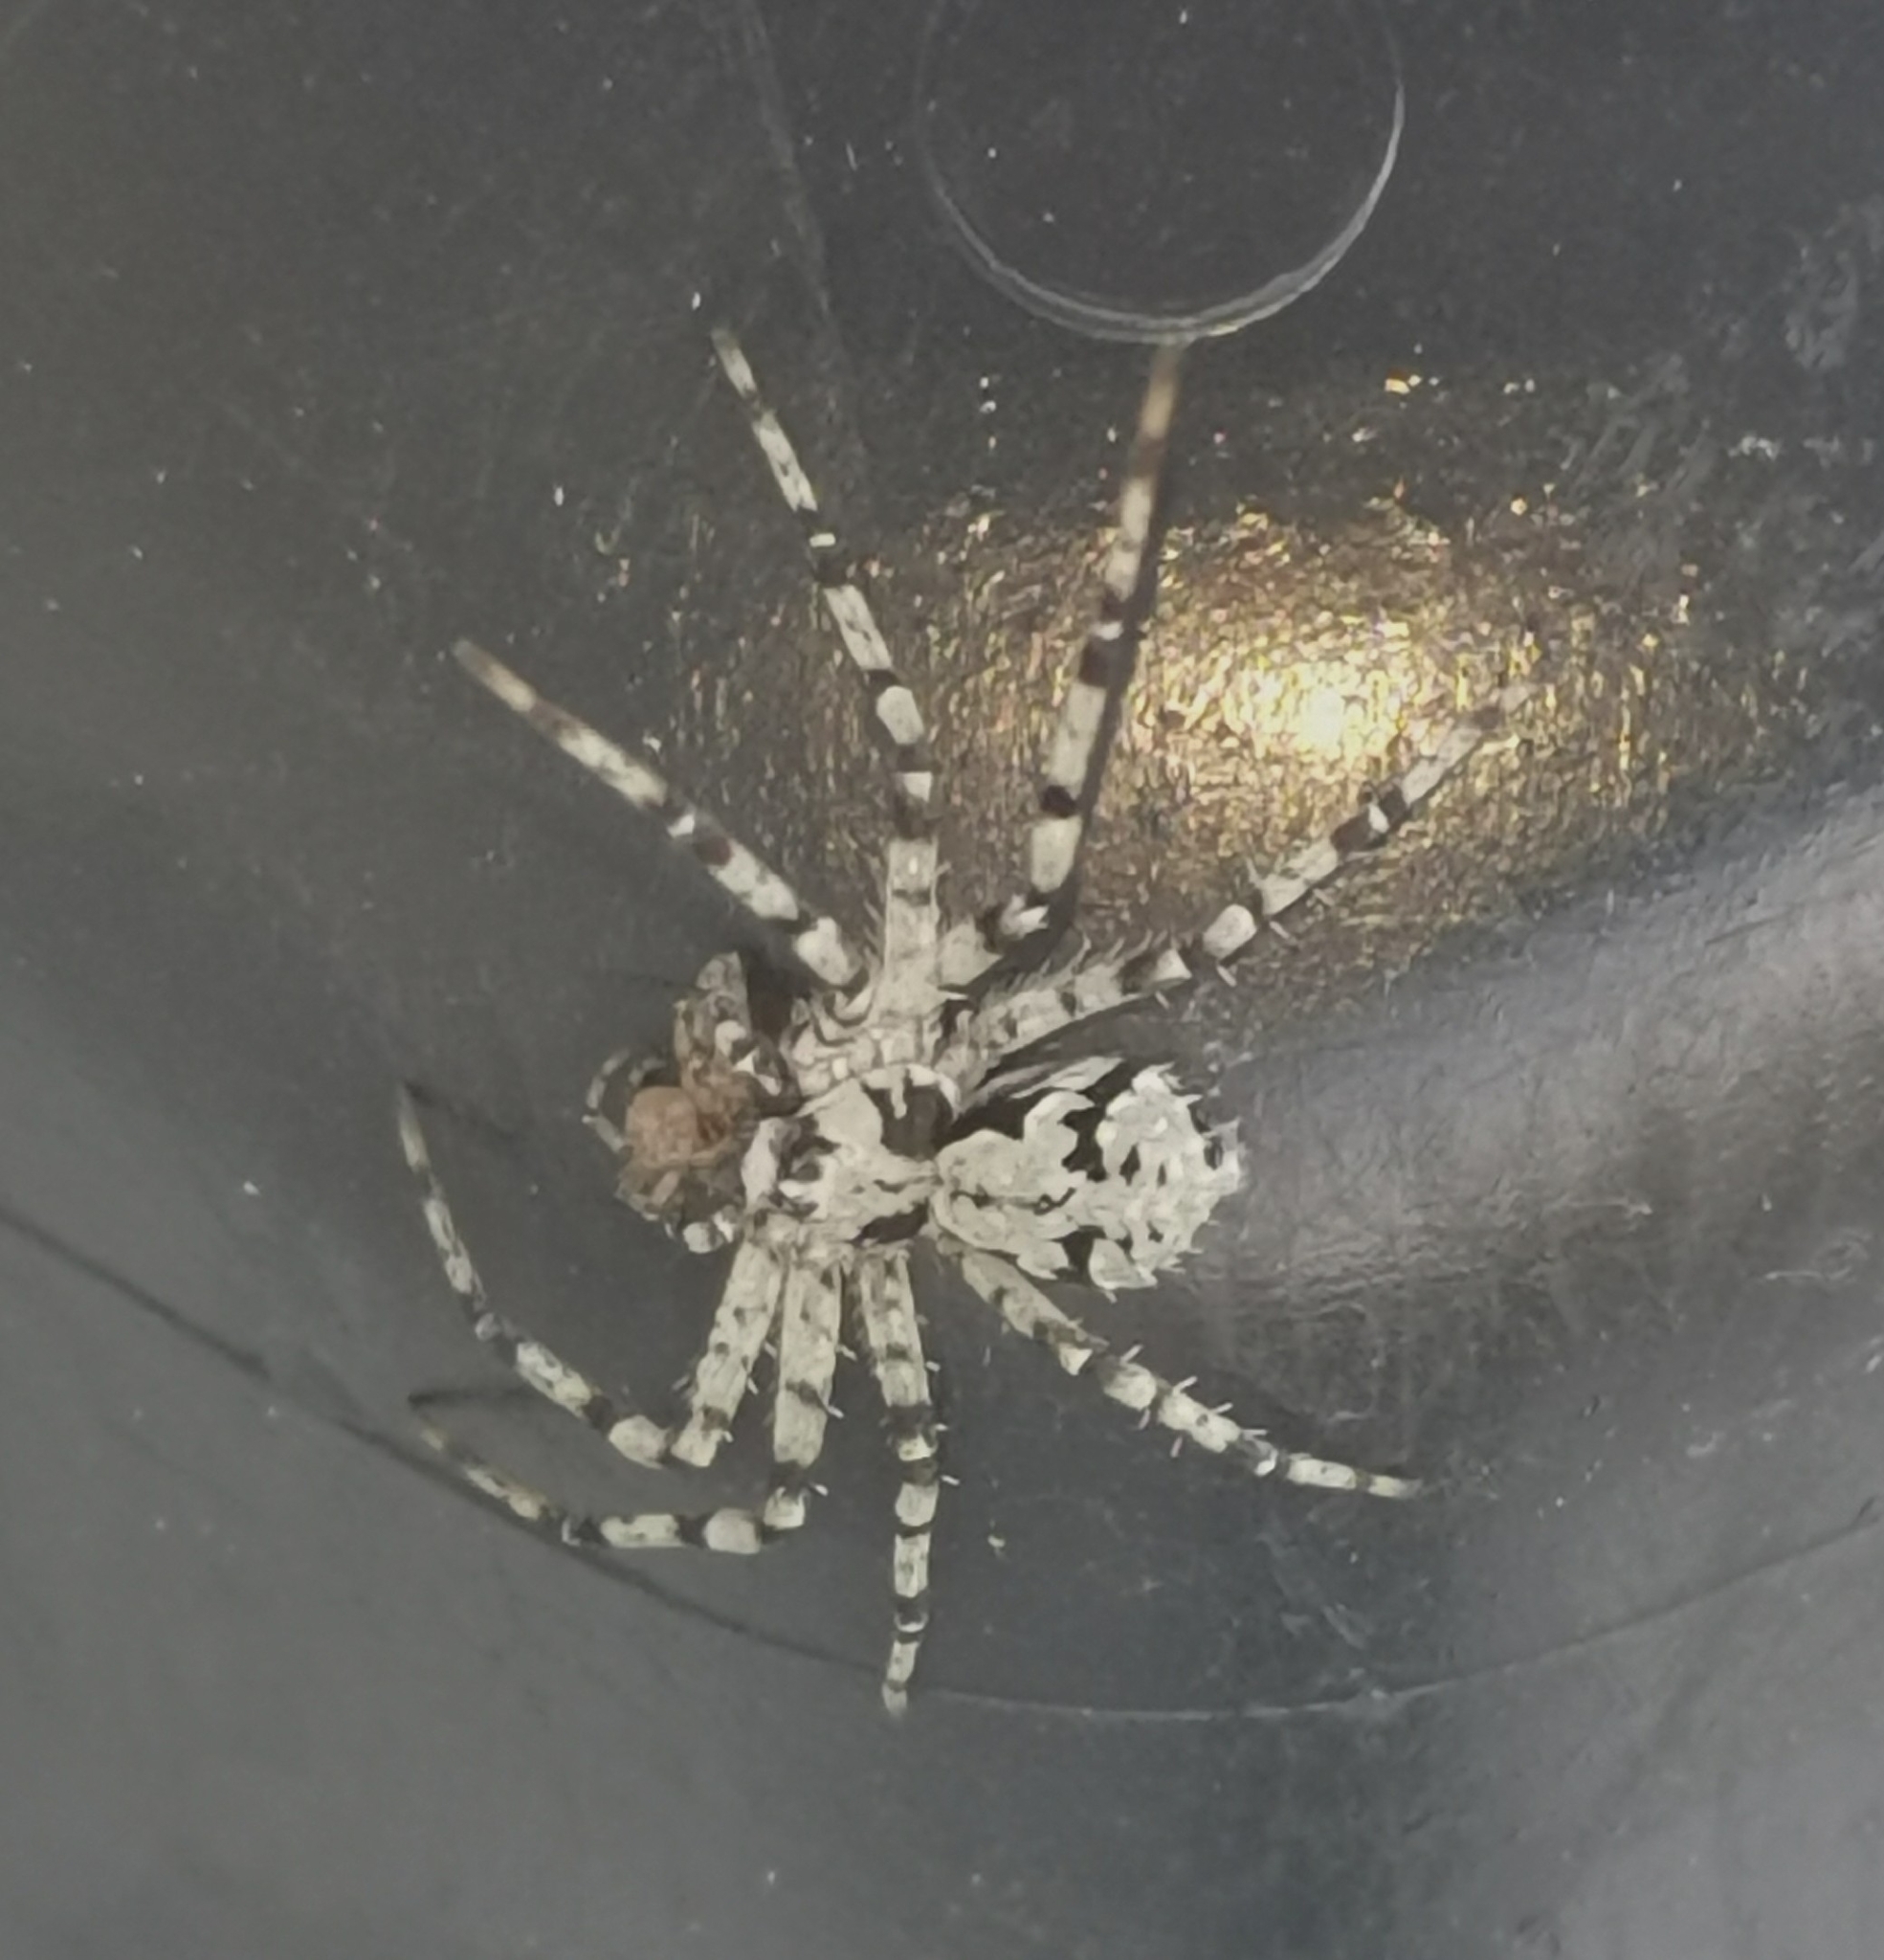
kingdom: Animalia
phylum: Arthropoda
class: Arachnida
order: Araneae
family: Philodromidae
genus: Philodromus
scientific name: Philodromus margaritatus
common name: Lichen running-spider
